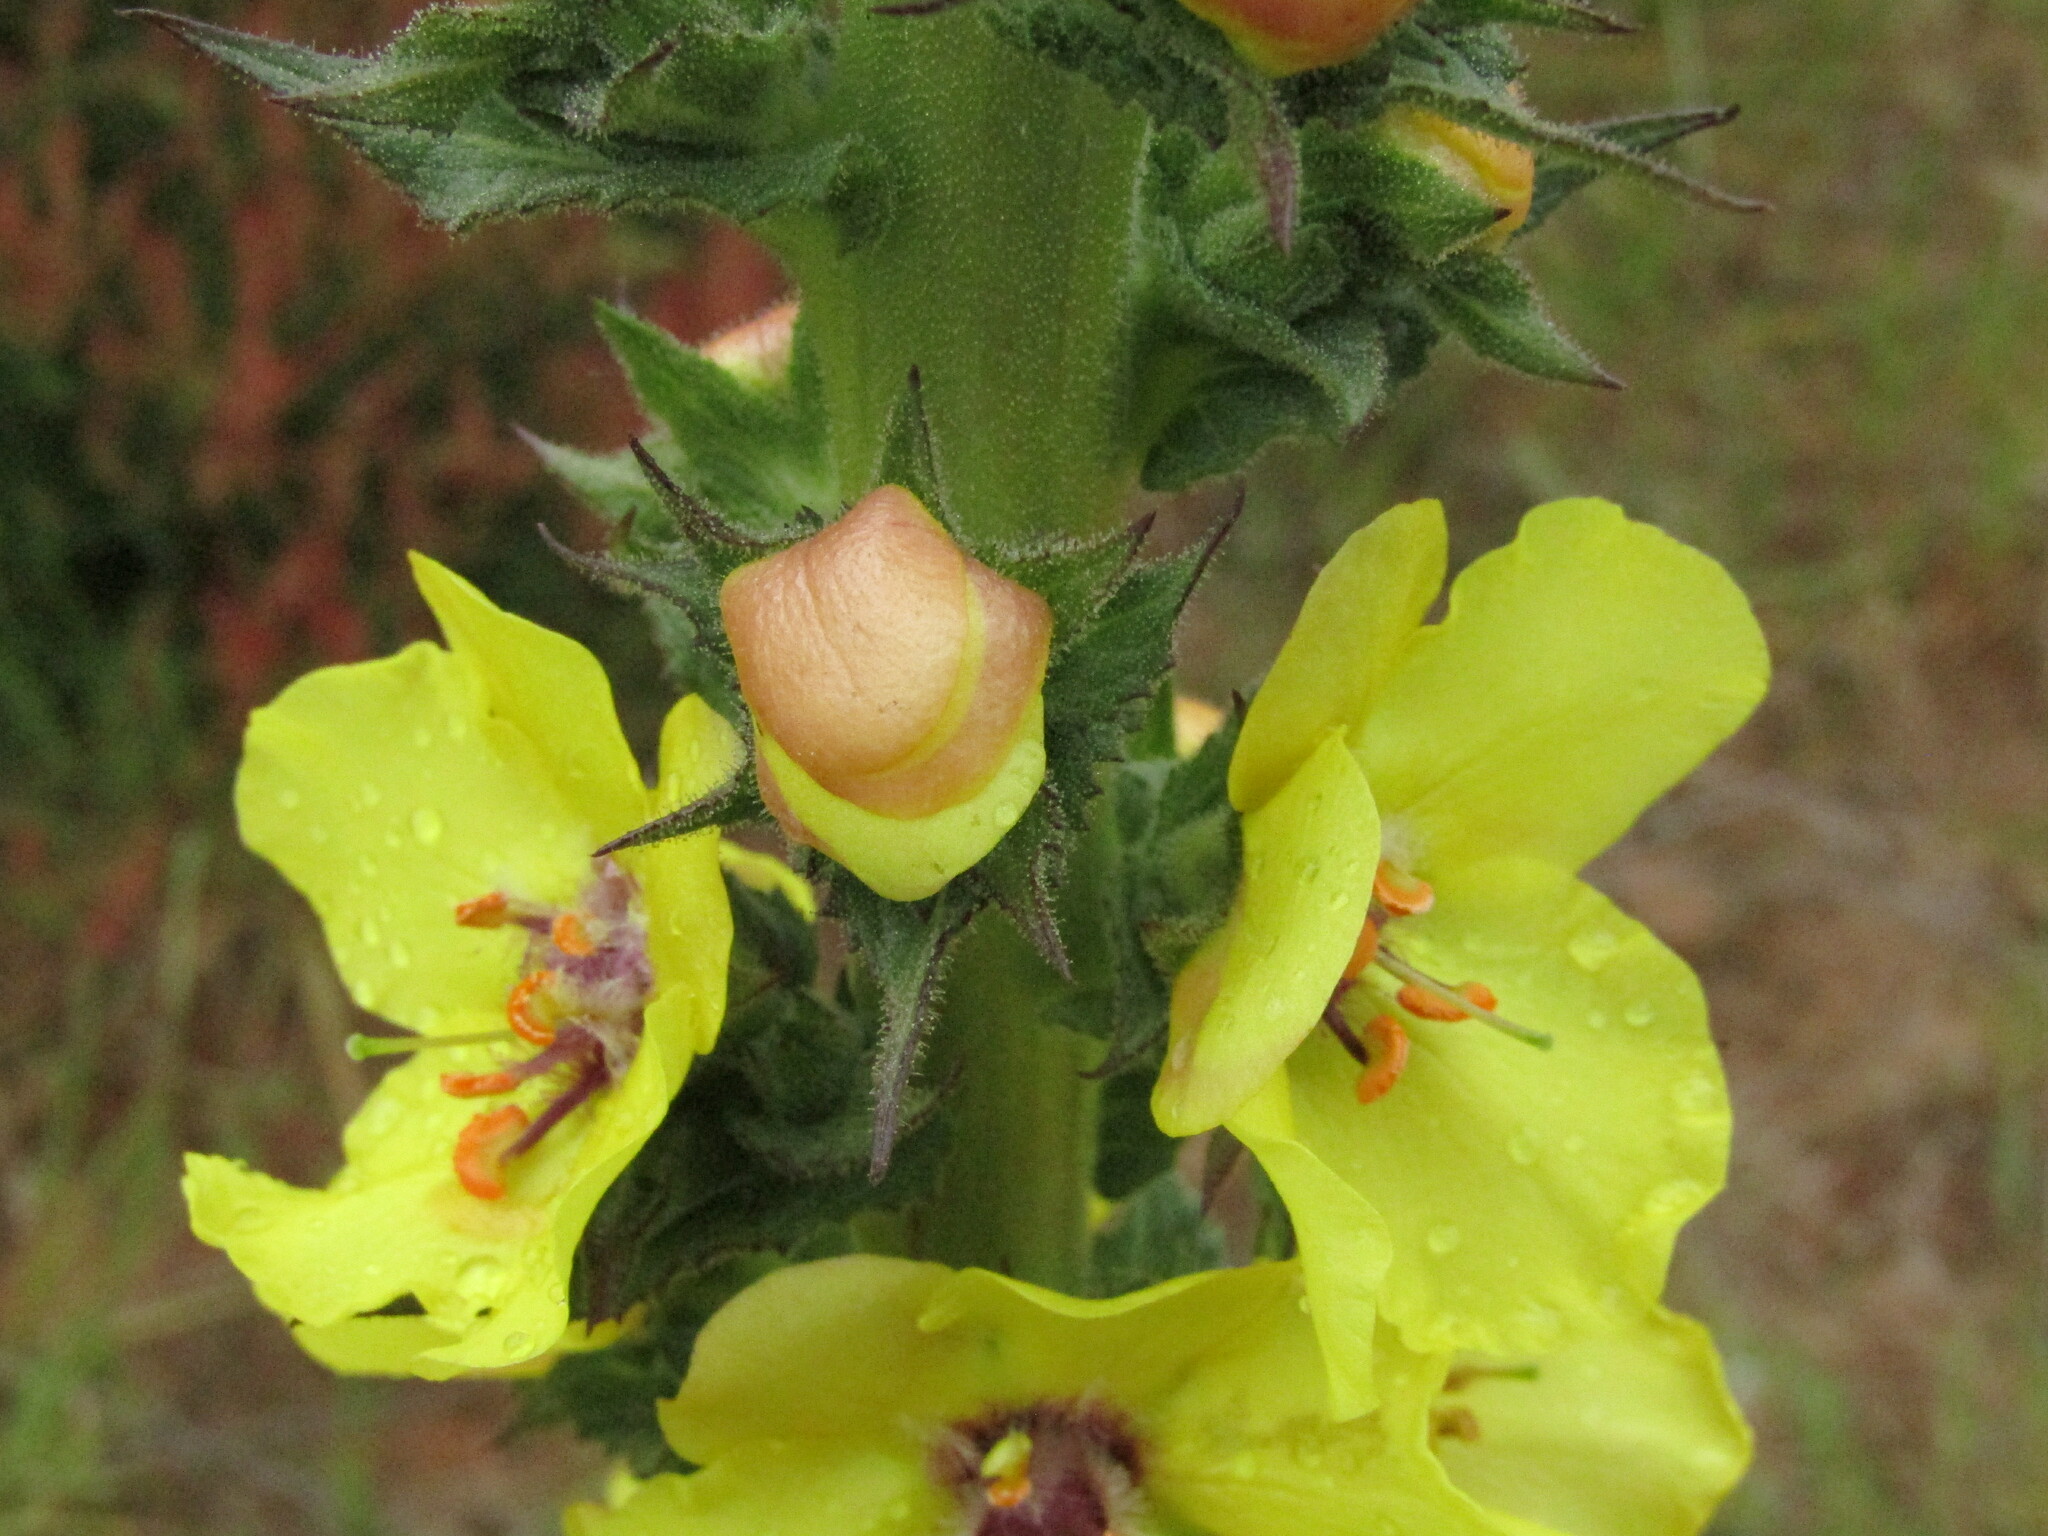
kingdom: Plantae
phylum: Tracheophyta
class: Magnoliopsida
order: Lamiales
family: Scrophulariaceae
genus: Verbascum
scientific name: Verbascum virgatum
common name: Twiggy mullein
